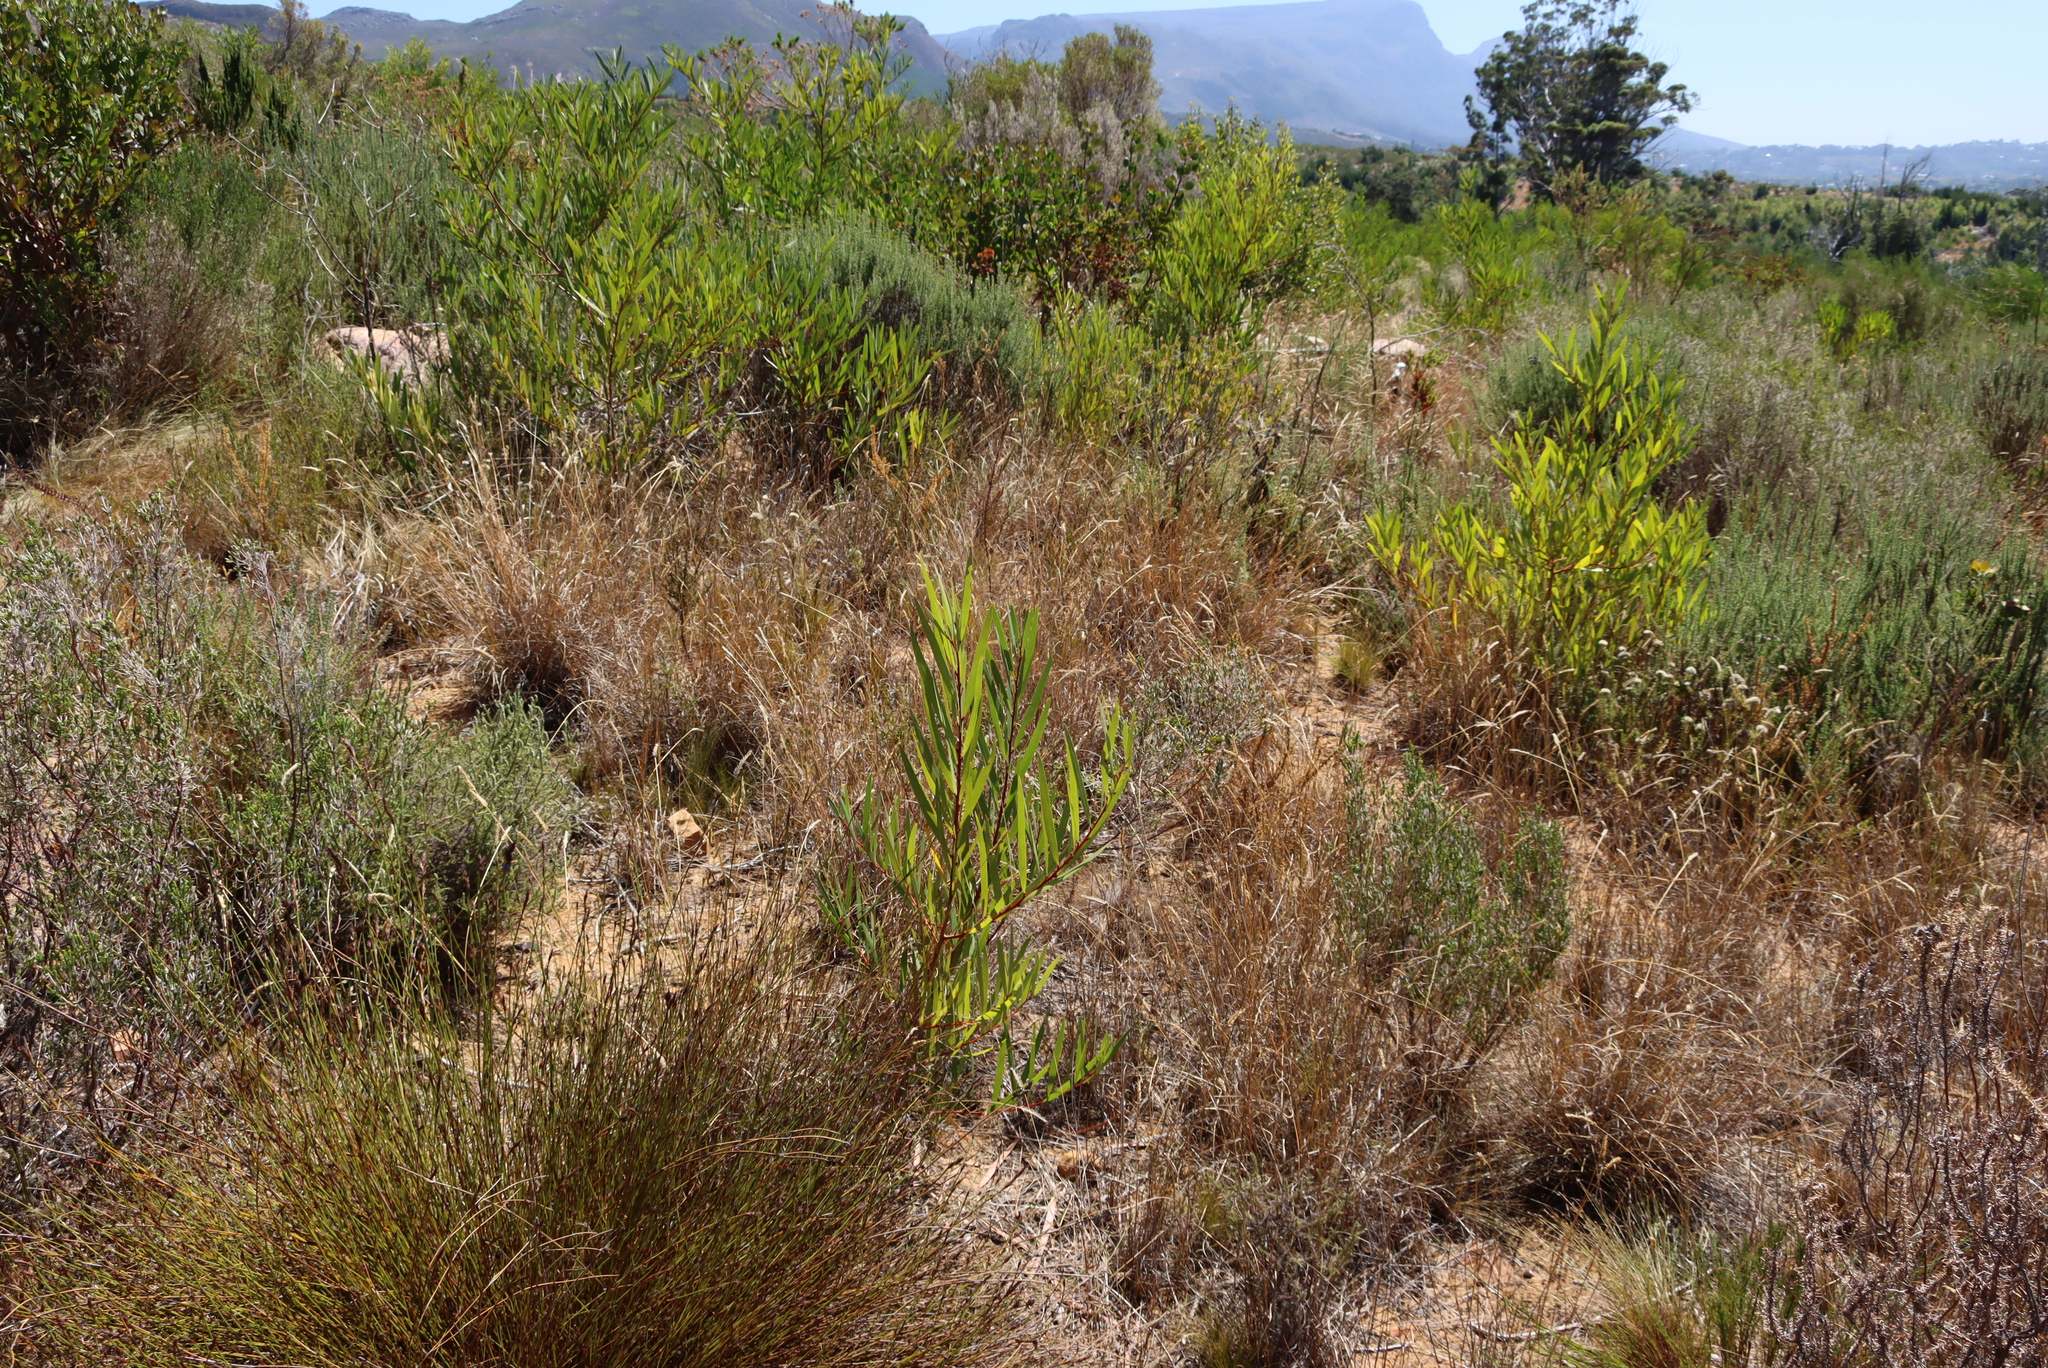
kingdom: Plantae
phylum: Tracheophyta
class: Magnoliopsida
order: Fabales
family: Fabaceae
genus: Acacia
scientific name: Acacia longifolia
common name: Sydney golden wattle
